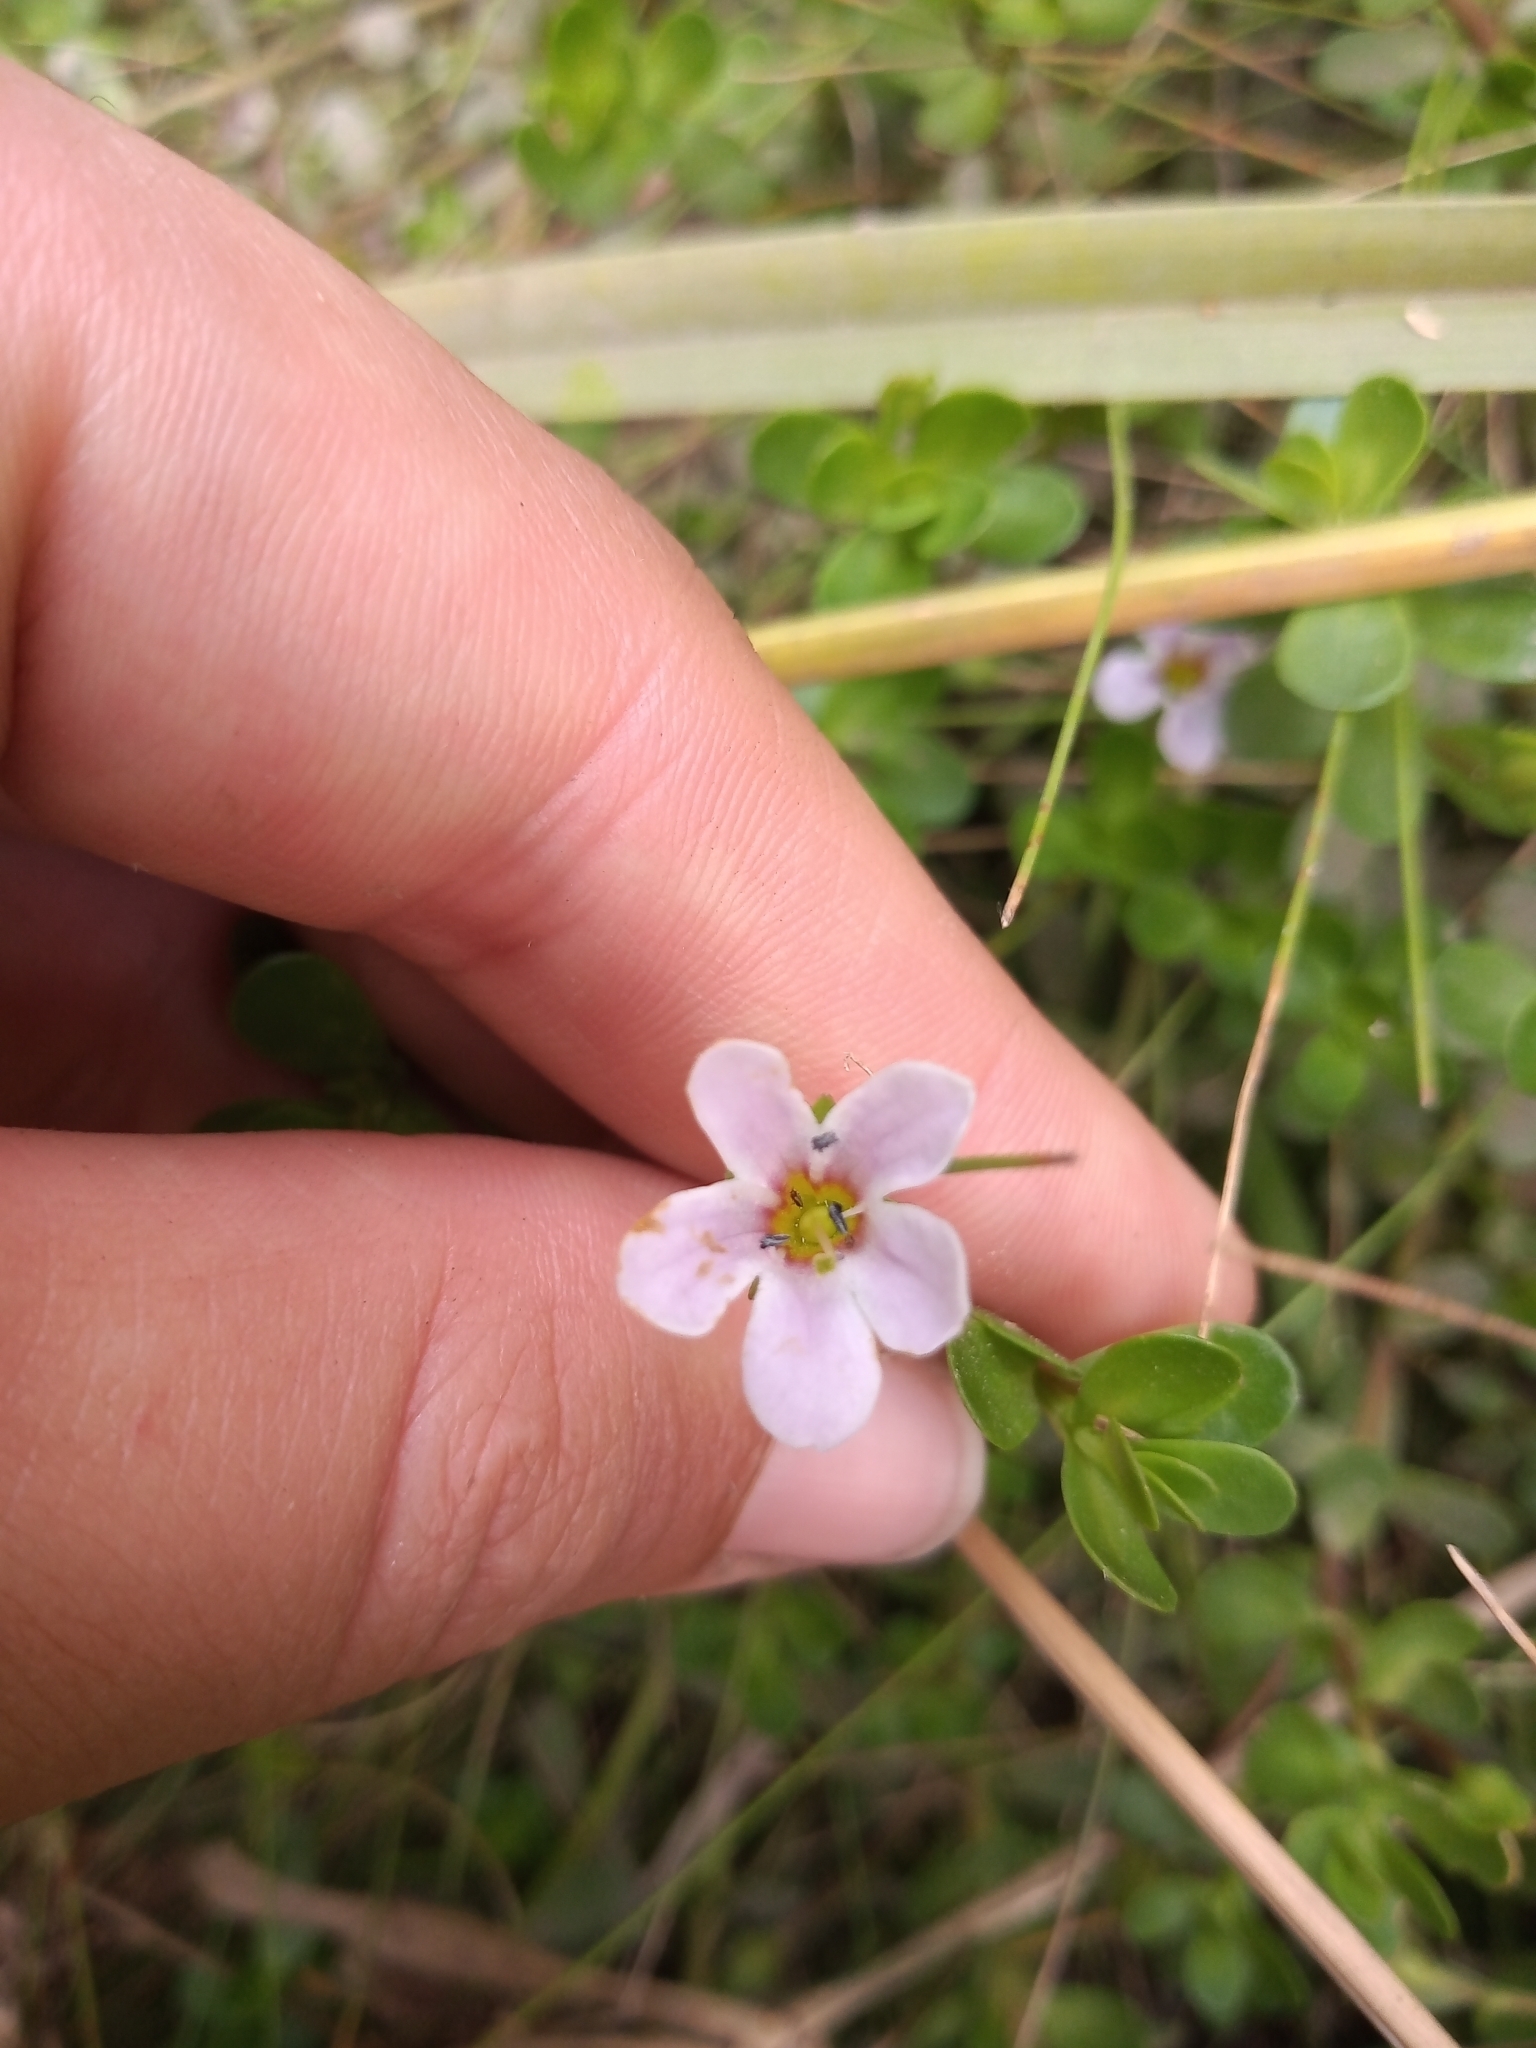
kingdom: Plantae
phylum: Tracheophyta
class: Magnoliopsida
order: Lamiales
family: Plantaginaceae
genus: Bacopa
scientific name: Bacopa monnieri
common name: Indian-pennywort
